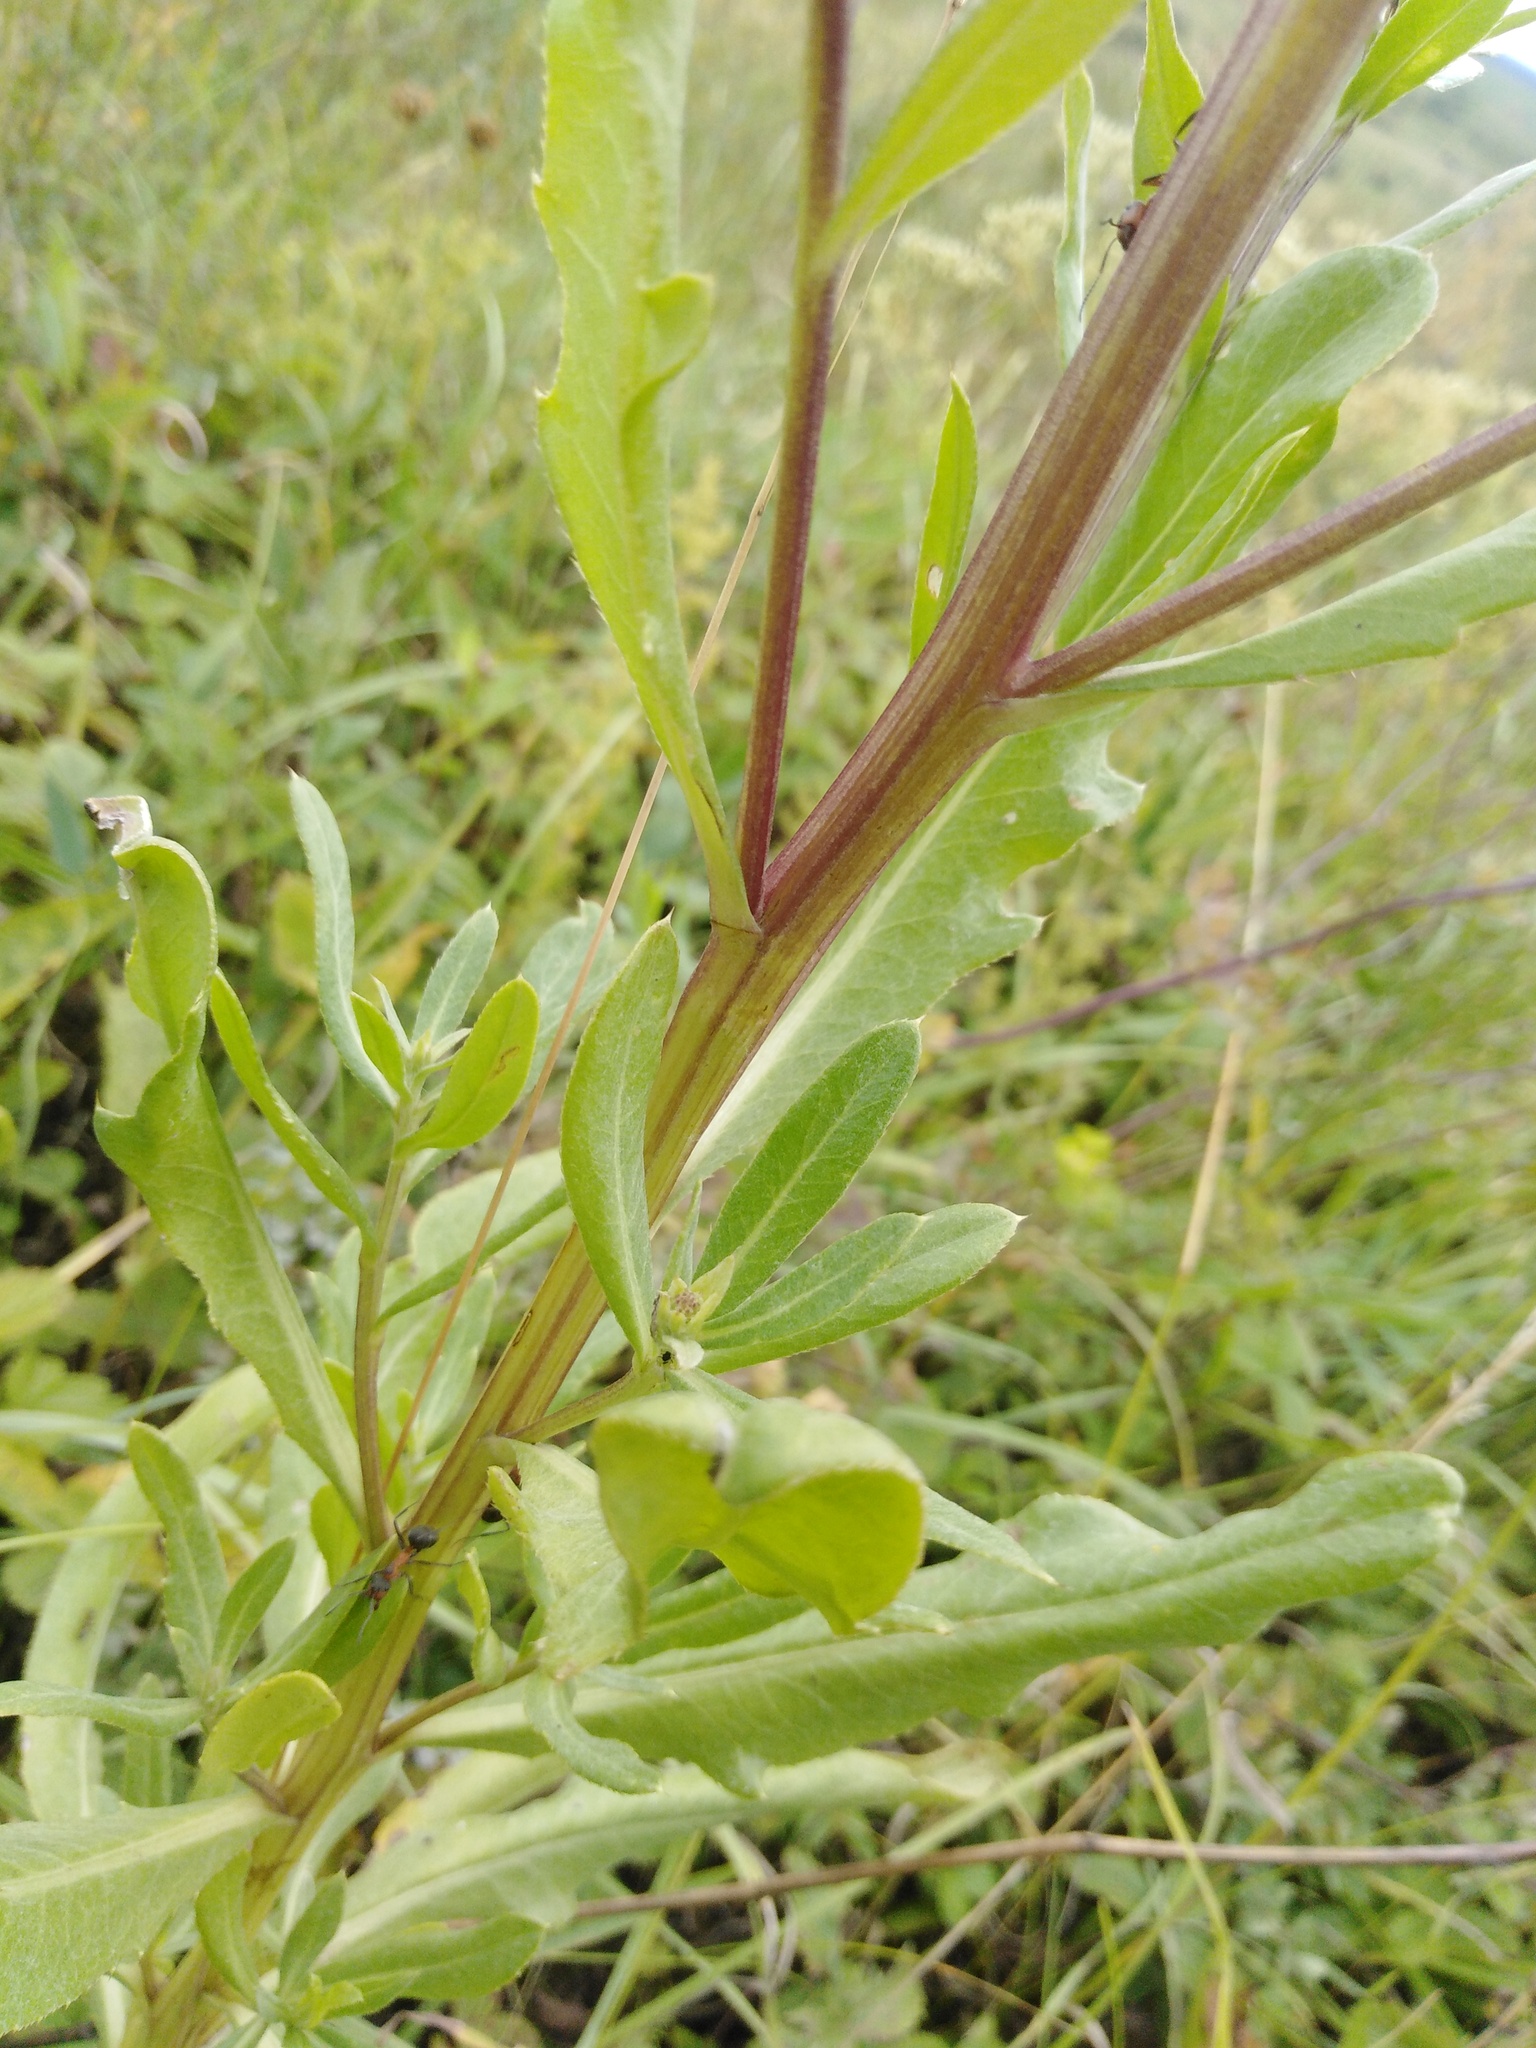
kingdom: Plantae
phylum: Tracheophyta
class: Magnoliopsida
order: Asterales
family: Asteraceae
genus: Cirsium
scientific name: Cirsium arvense
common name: Creeping thistle
